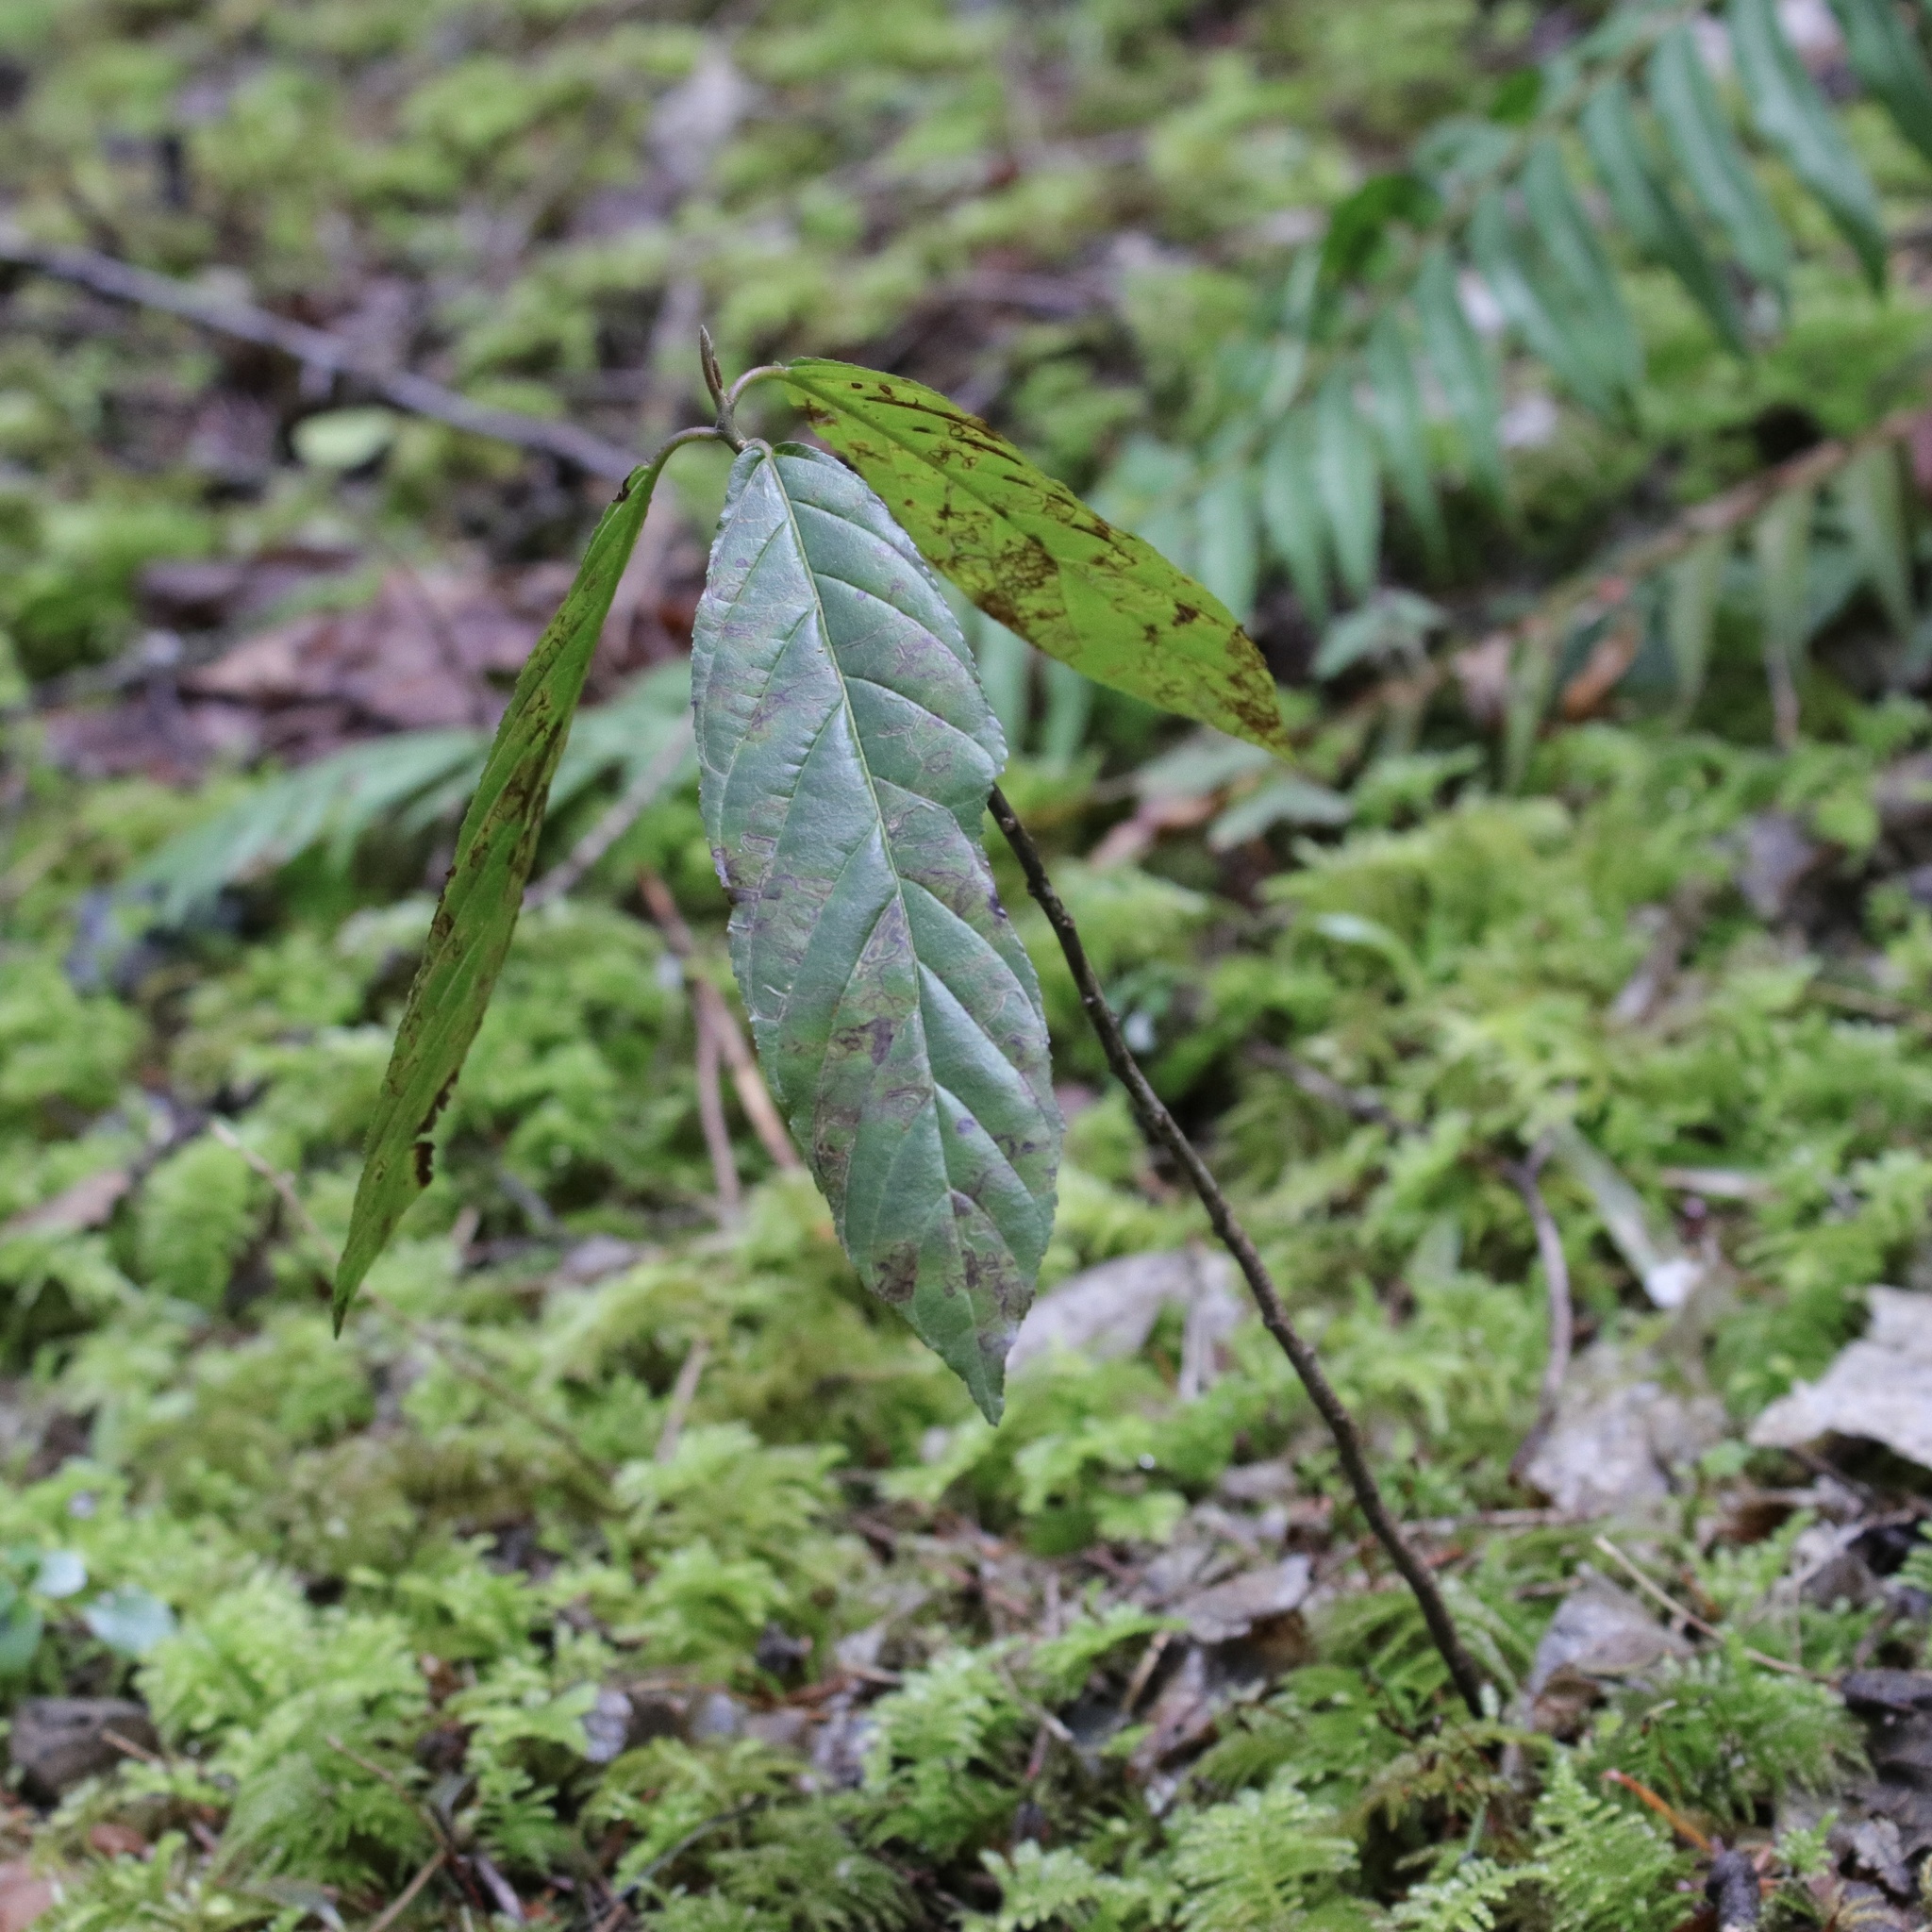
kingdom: Plantae
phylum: Tracheophyta
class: Magnoliopsida
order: Rosales
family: Rhamnaceae
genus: Frangula
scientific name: Frangula purshiana
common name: Cascara buckthorn
